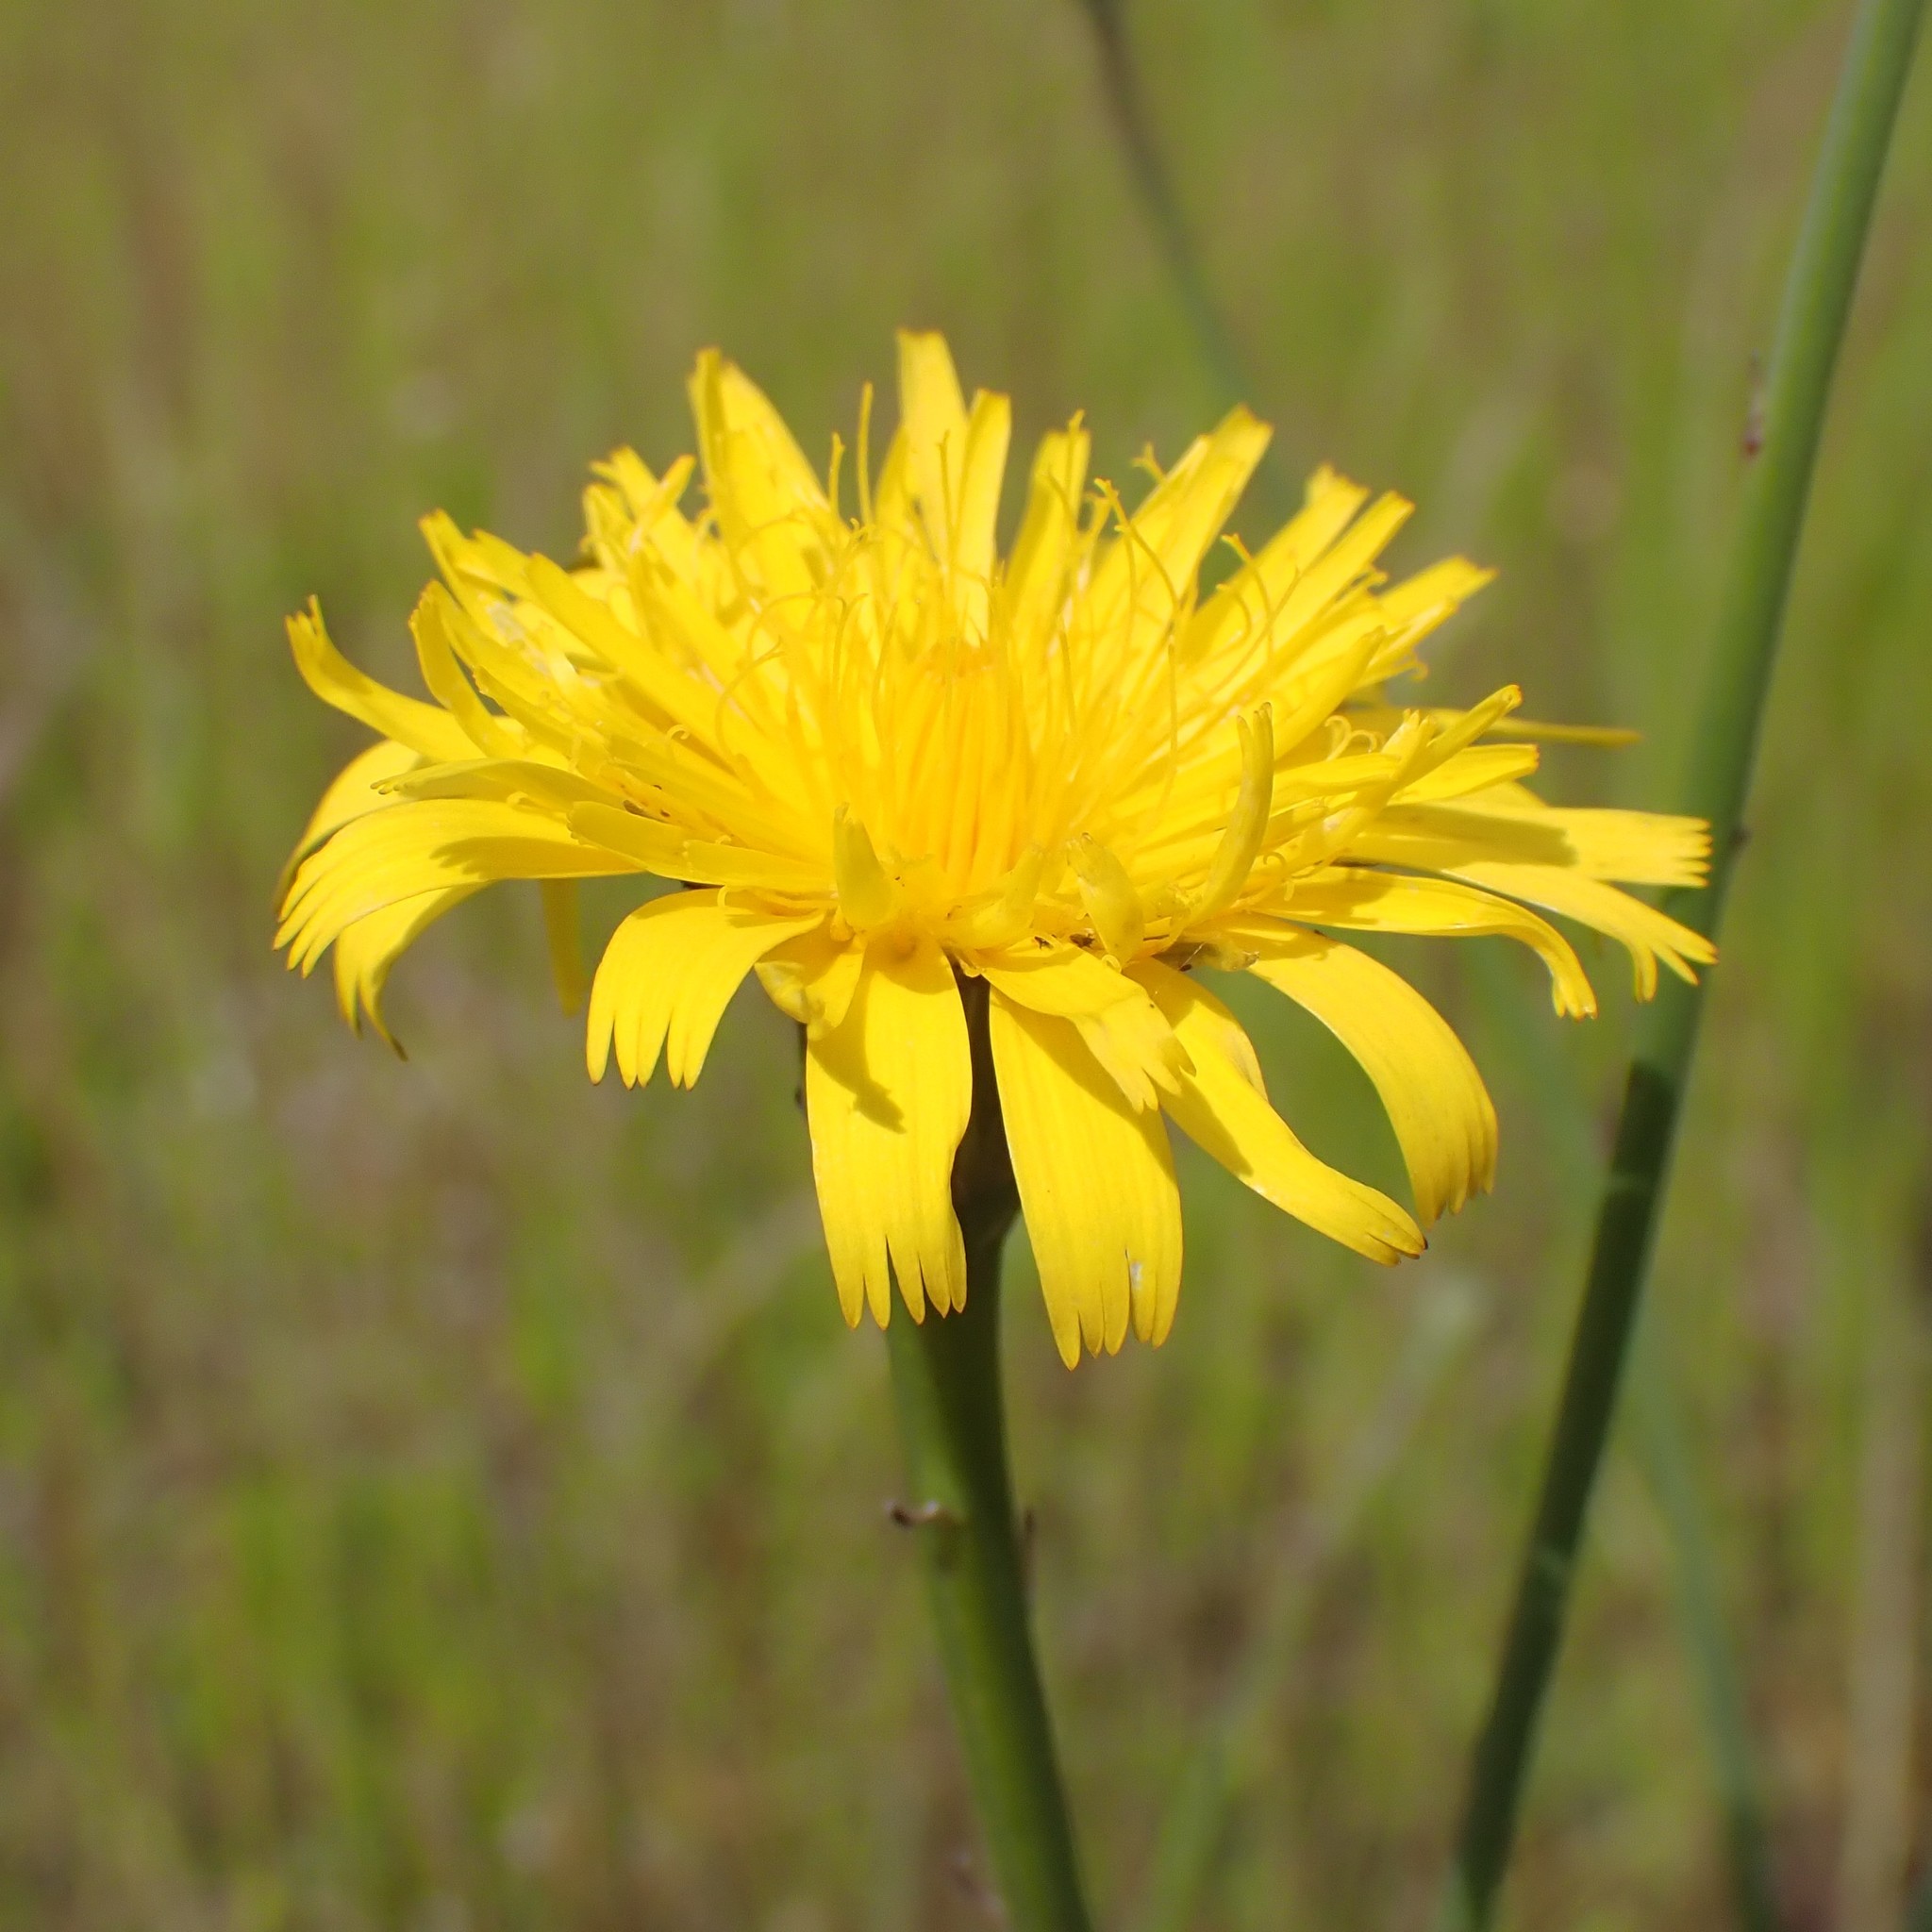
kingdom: Plantae
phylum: Tracheophyta
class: Magnoliopsida
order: Asterales
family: Asteraceae
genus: Hypochaeris
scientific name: Hypochaeris radicata
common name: Flatweed
